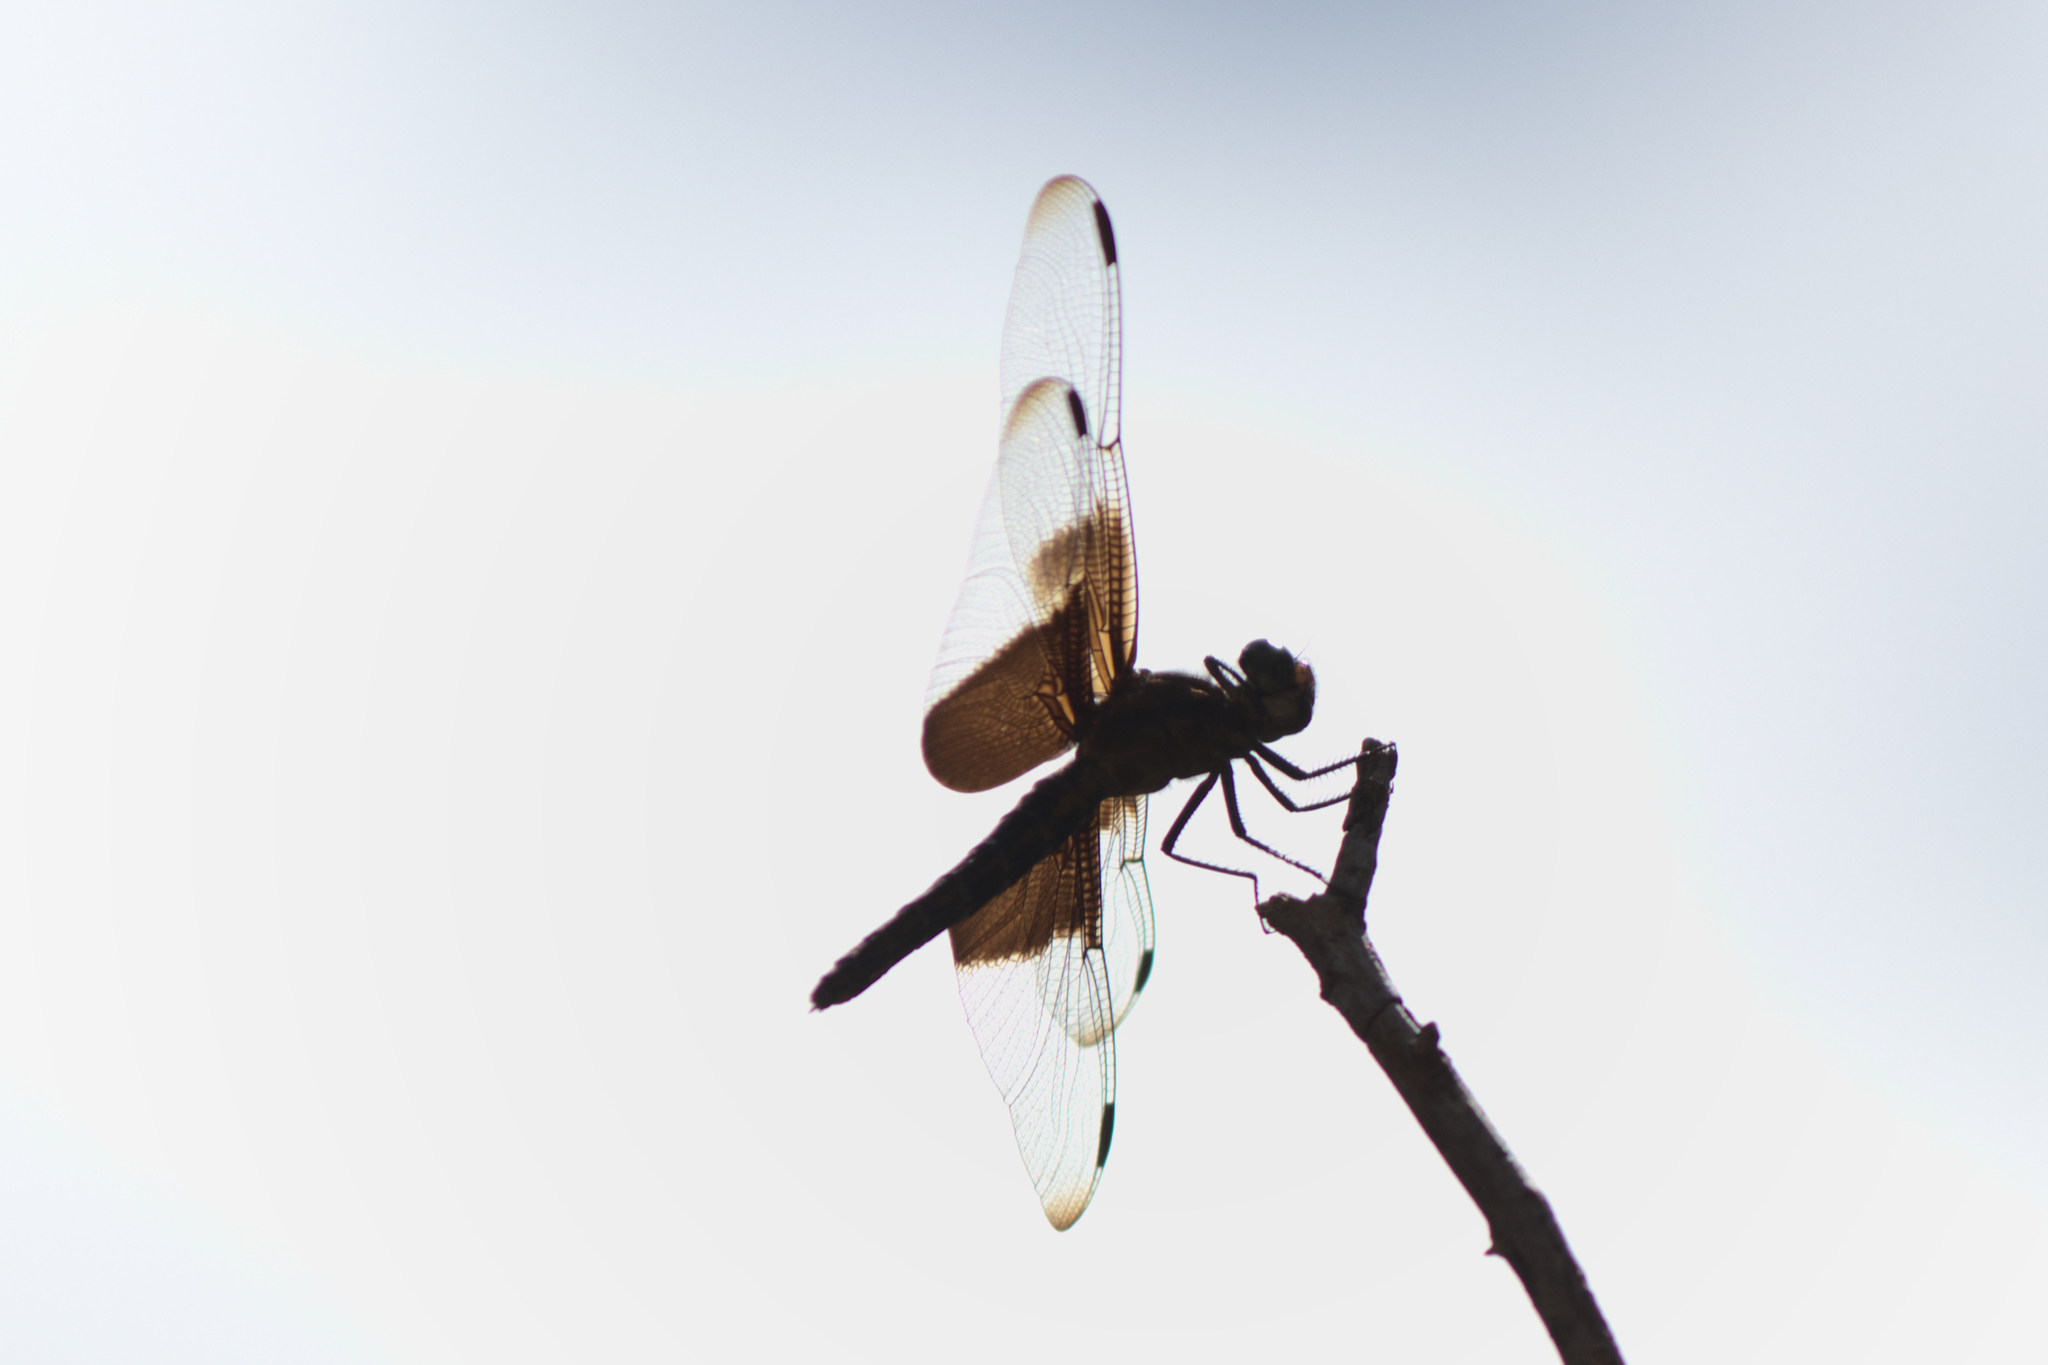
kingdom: Animalia
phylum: Arthropoda
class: Insecta
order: Odonata
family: Libellulidae
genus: Libellula
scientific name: Libellula luctuosa
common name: Widow skimmer
